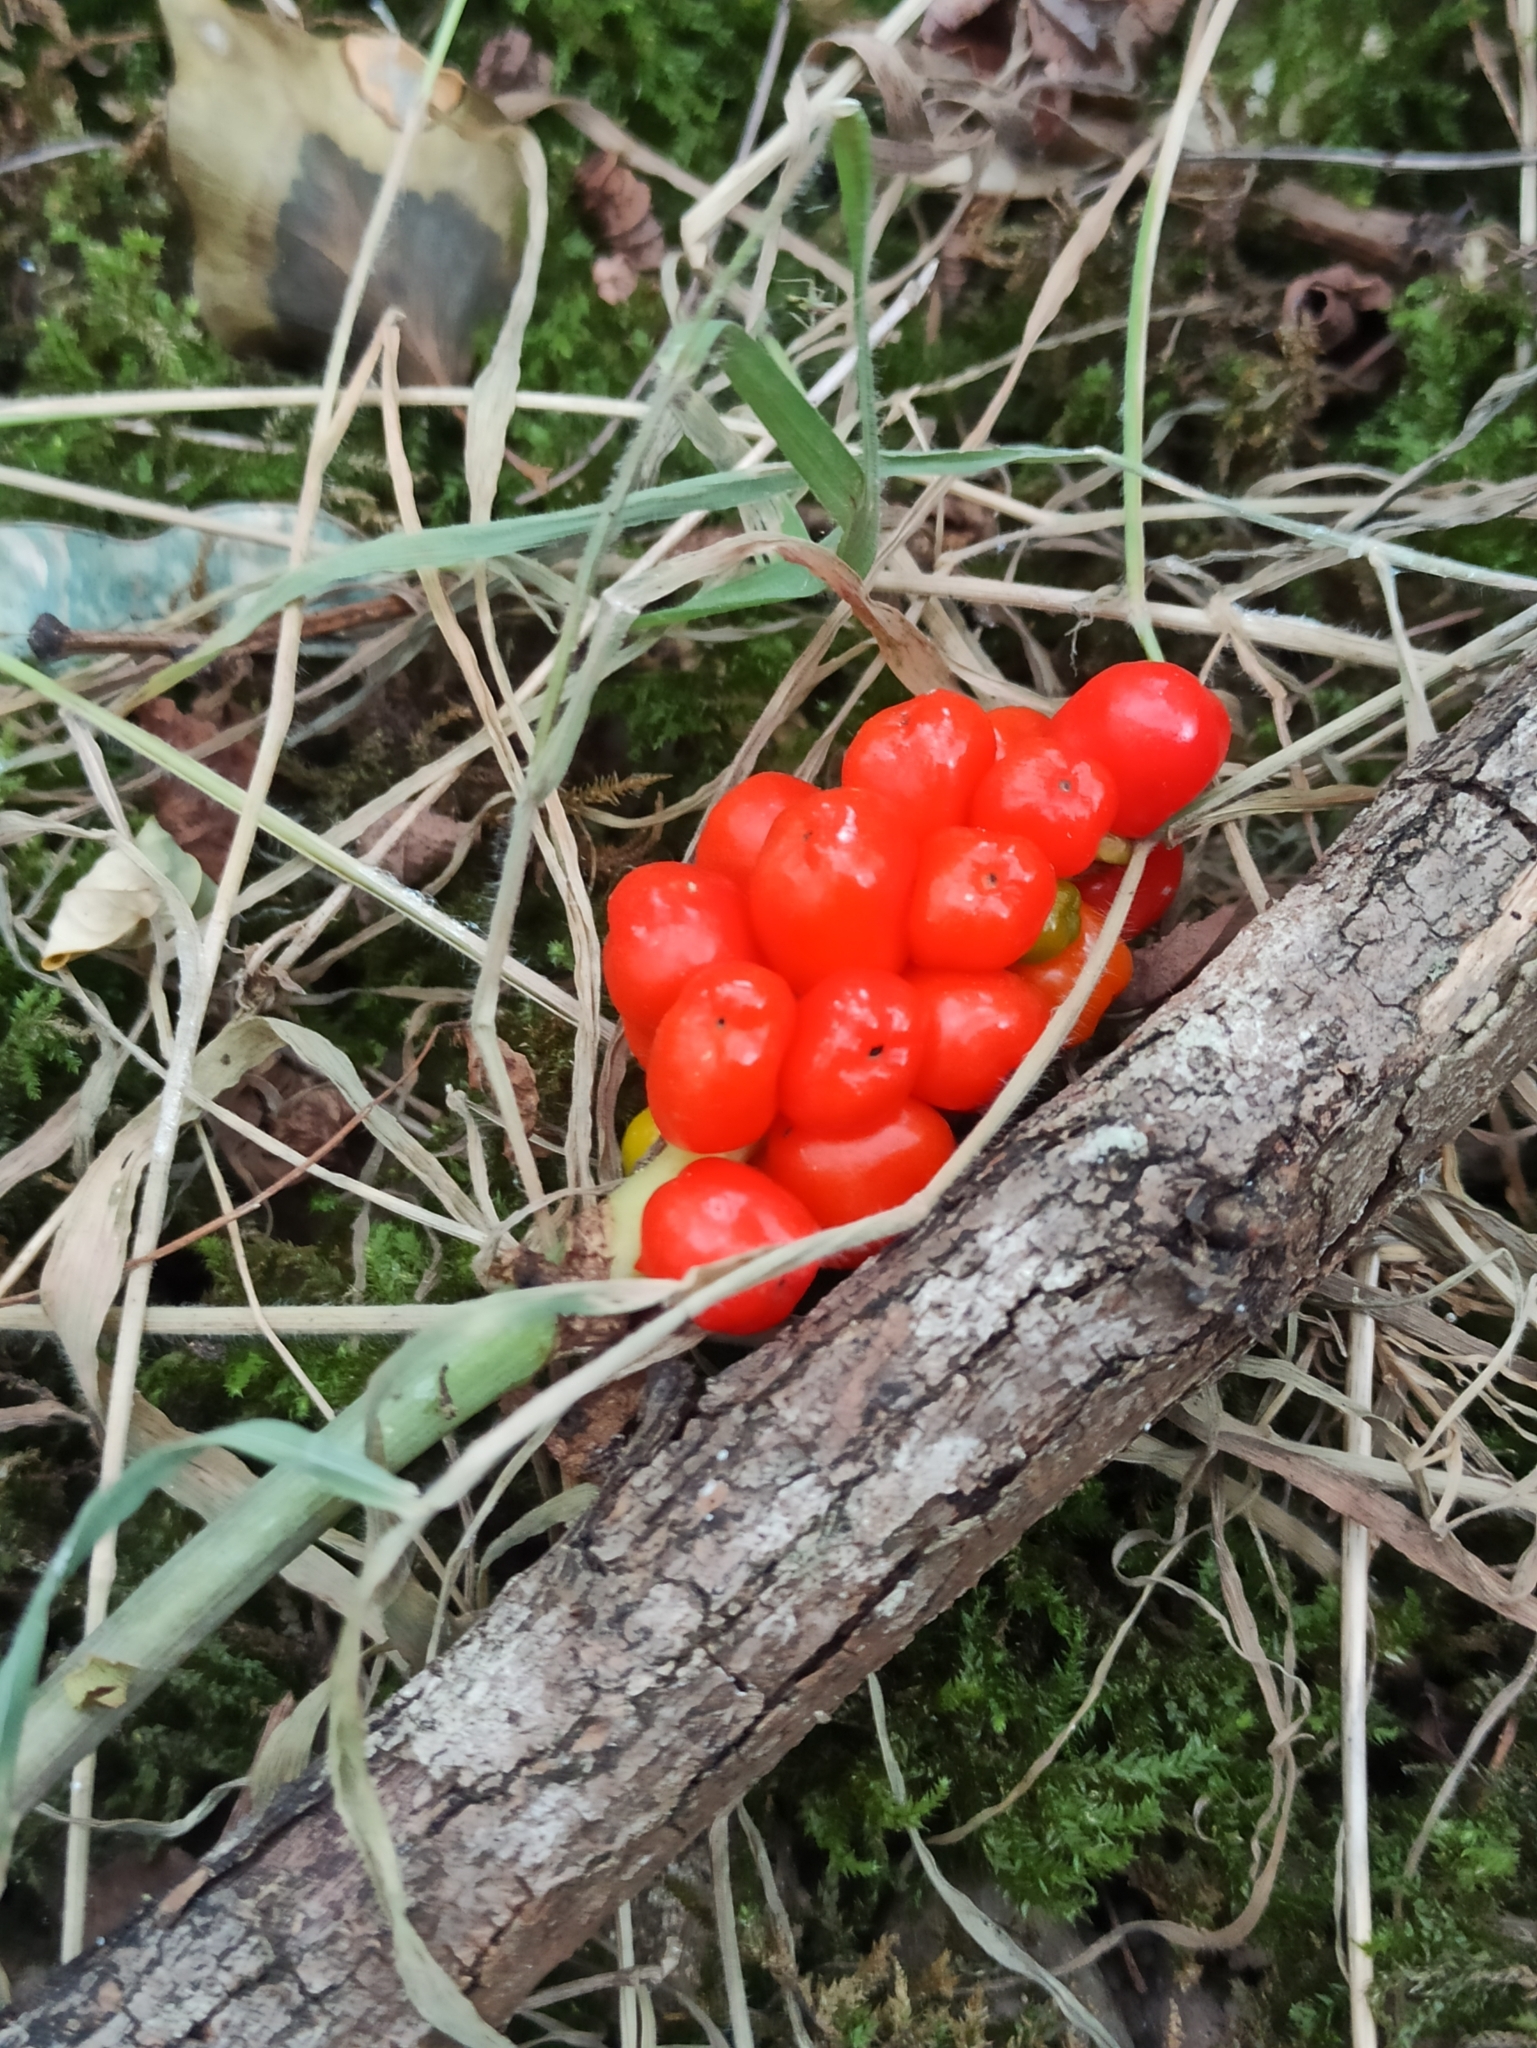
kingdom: Plantae
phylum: Tracheophyta
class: Liliopsida
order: Alismatales
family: Araceae
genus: Arum
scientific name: Arum maculatum
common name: Lords-and-ladies
